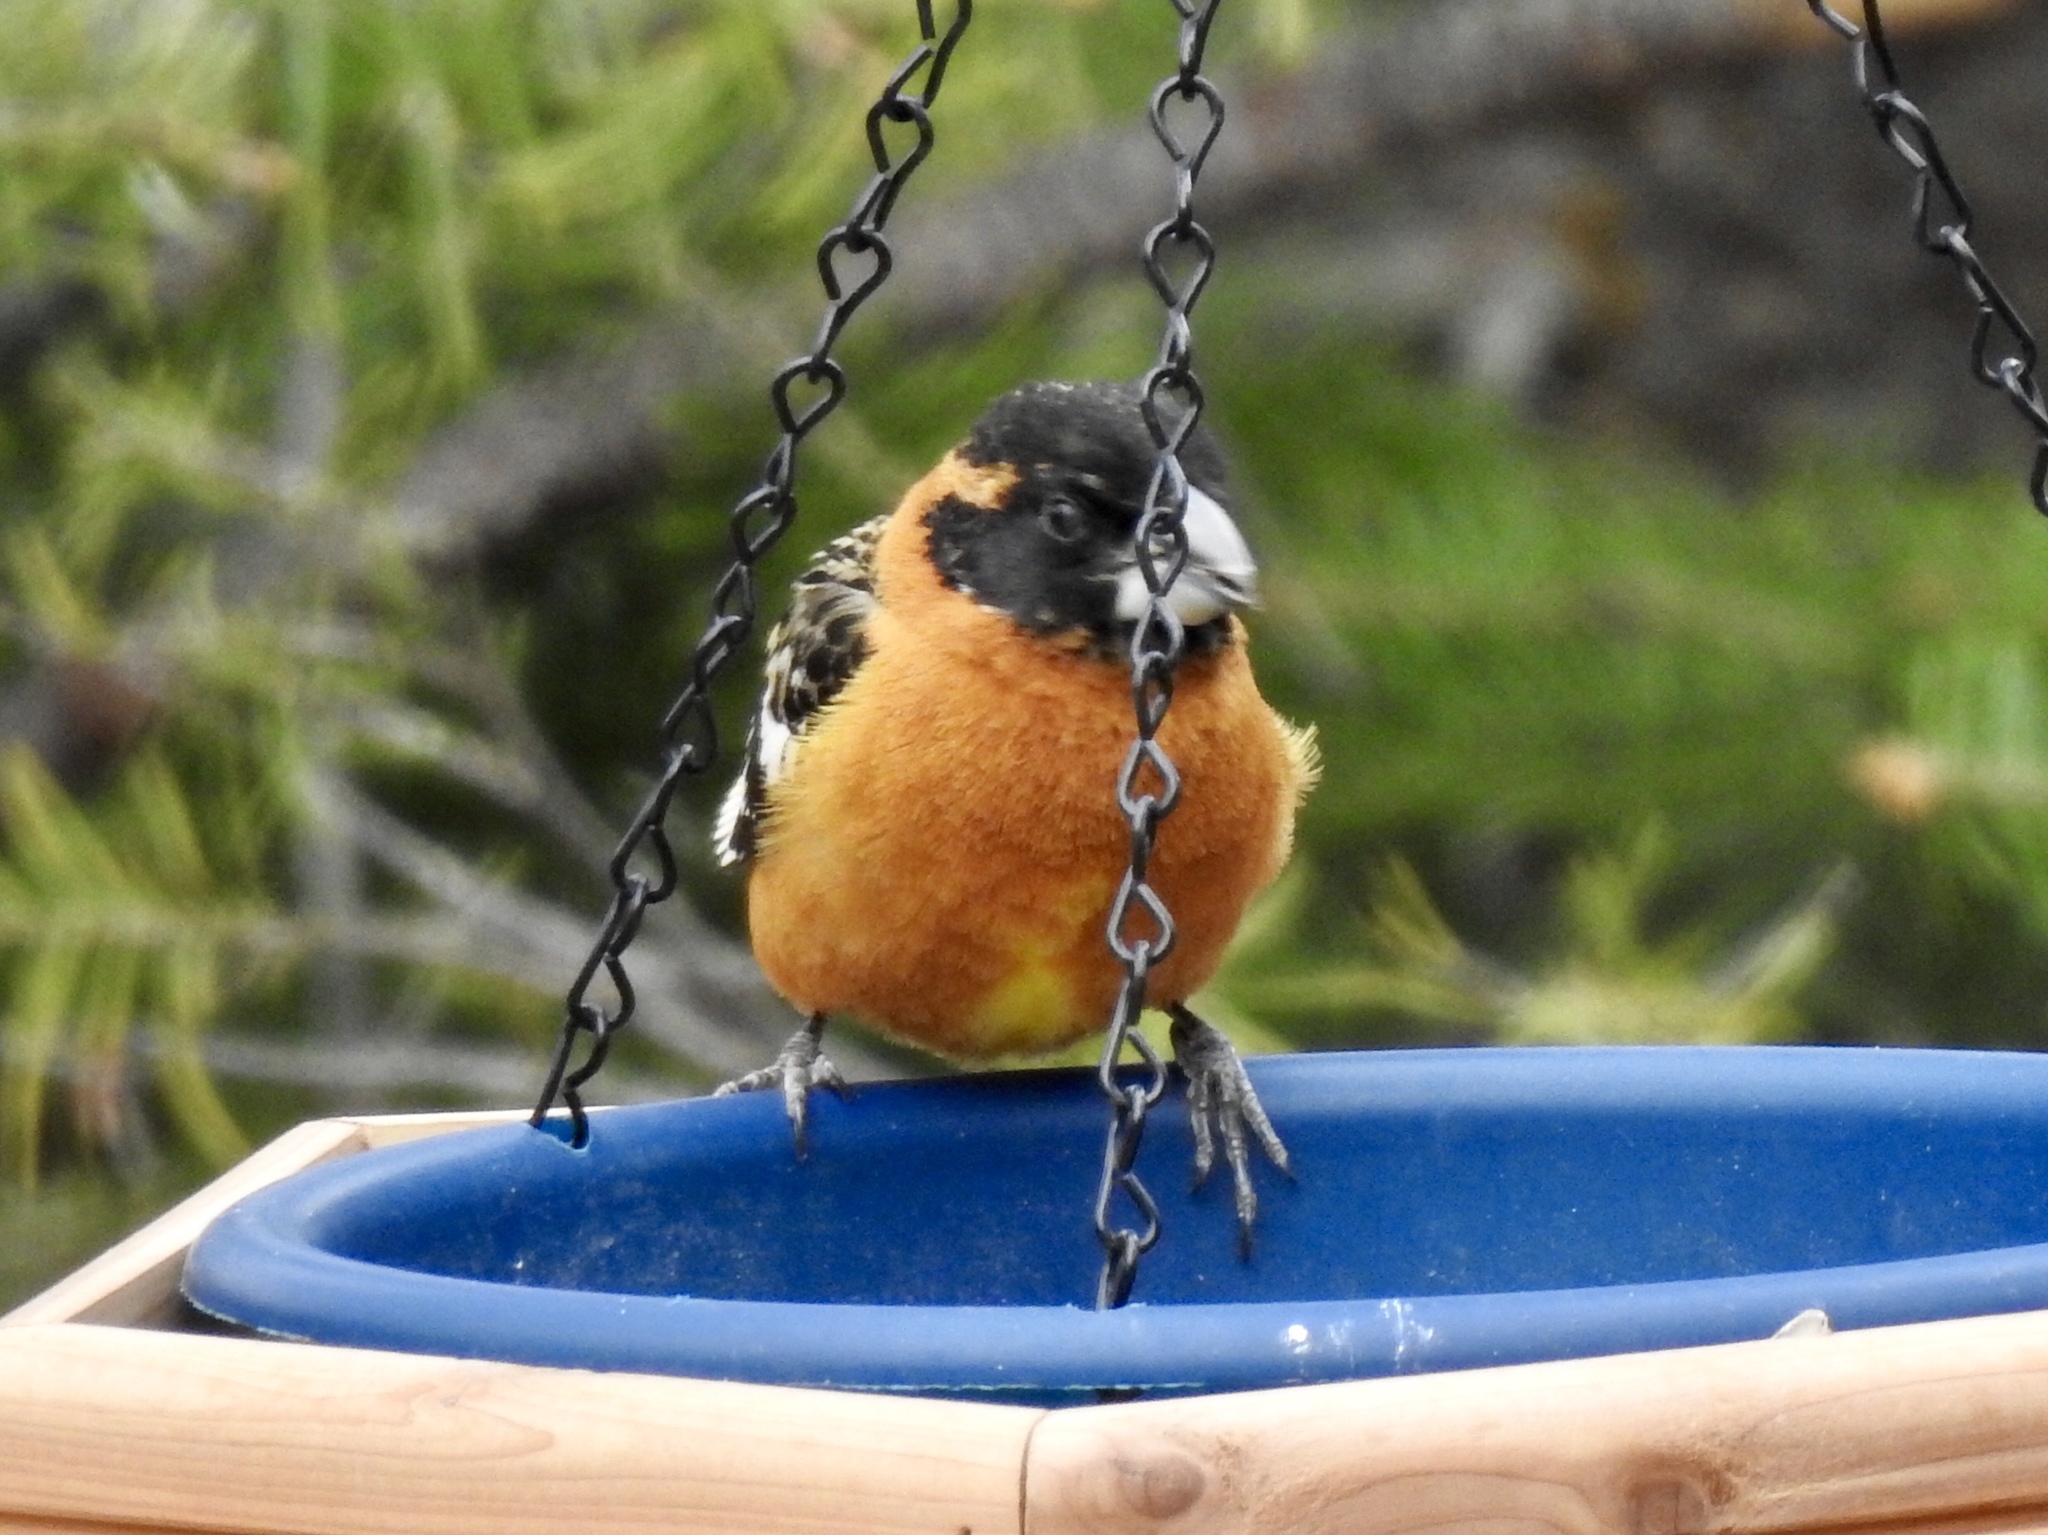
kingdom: Animalia
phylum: Chordata
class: Aves
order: Passeriformes
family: Cardinalidae
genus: Pheucticus
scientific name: Pheucticus melanocephalus
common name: Black-headed grosbeak
